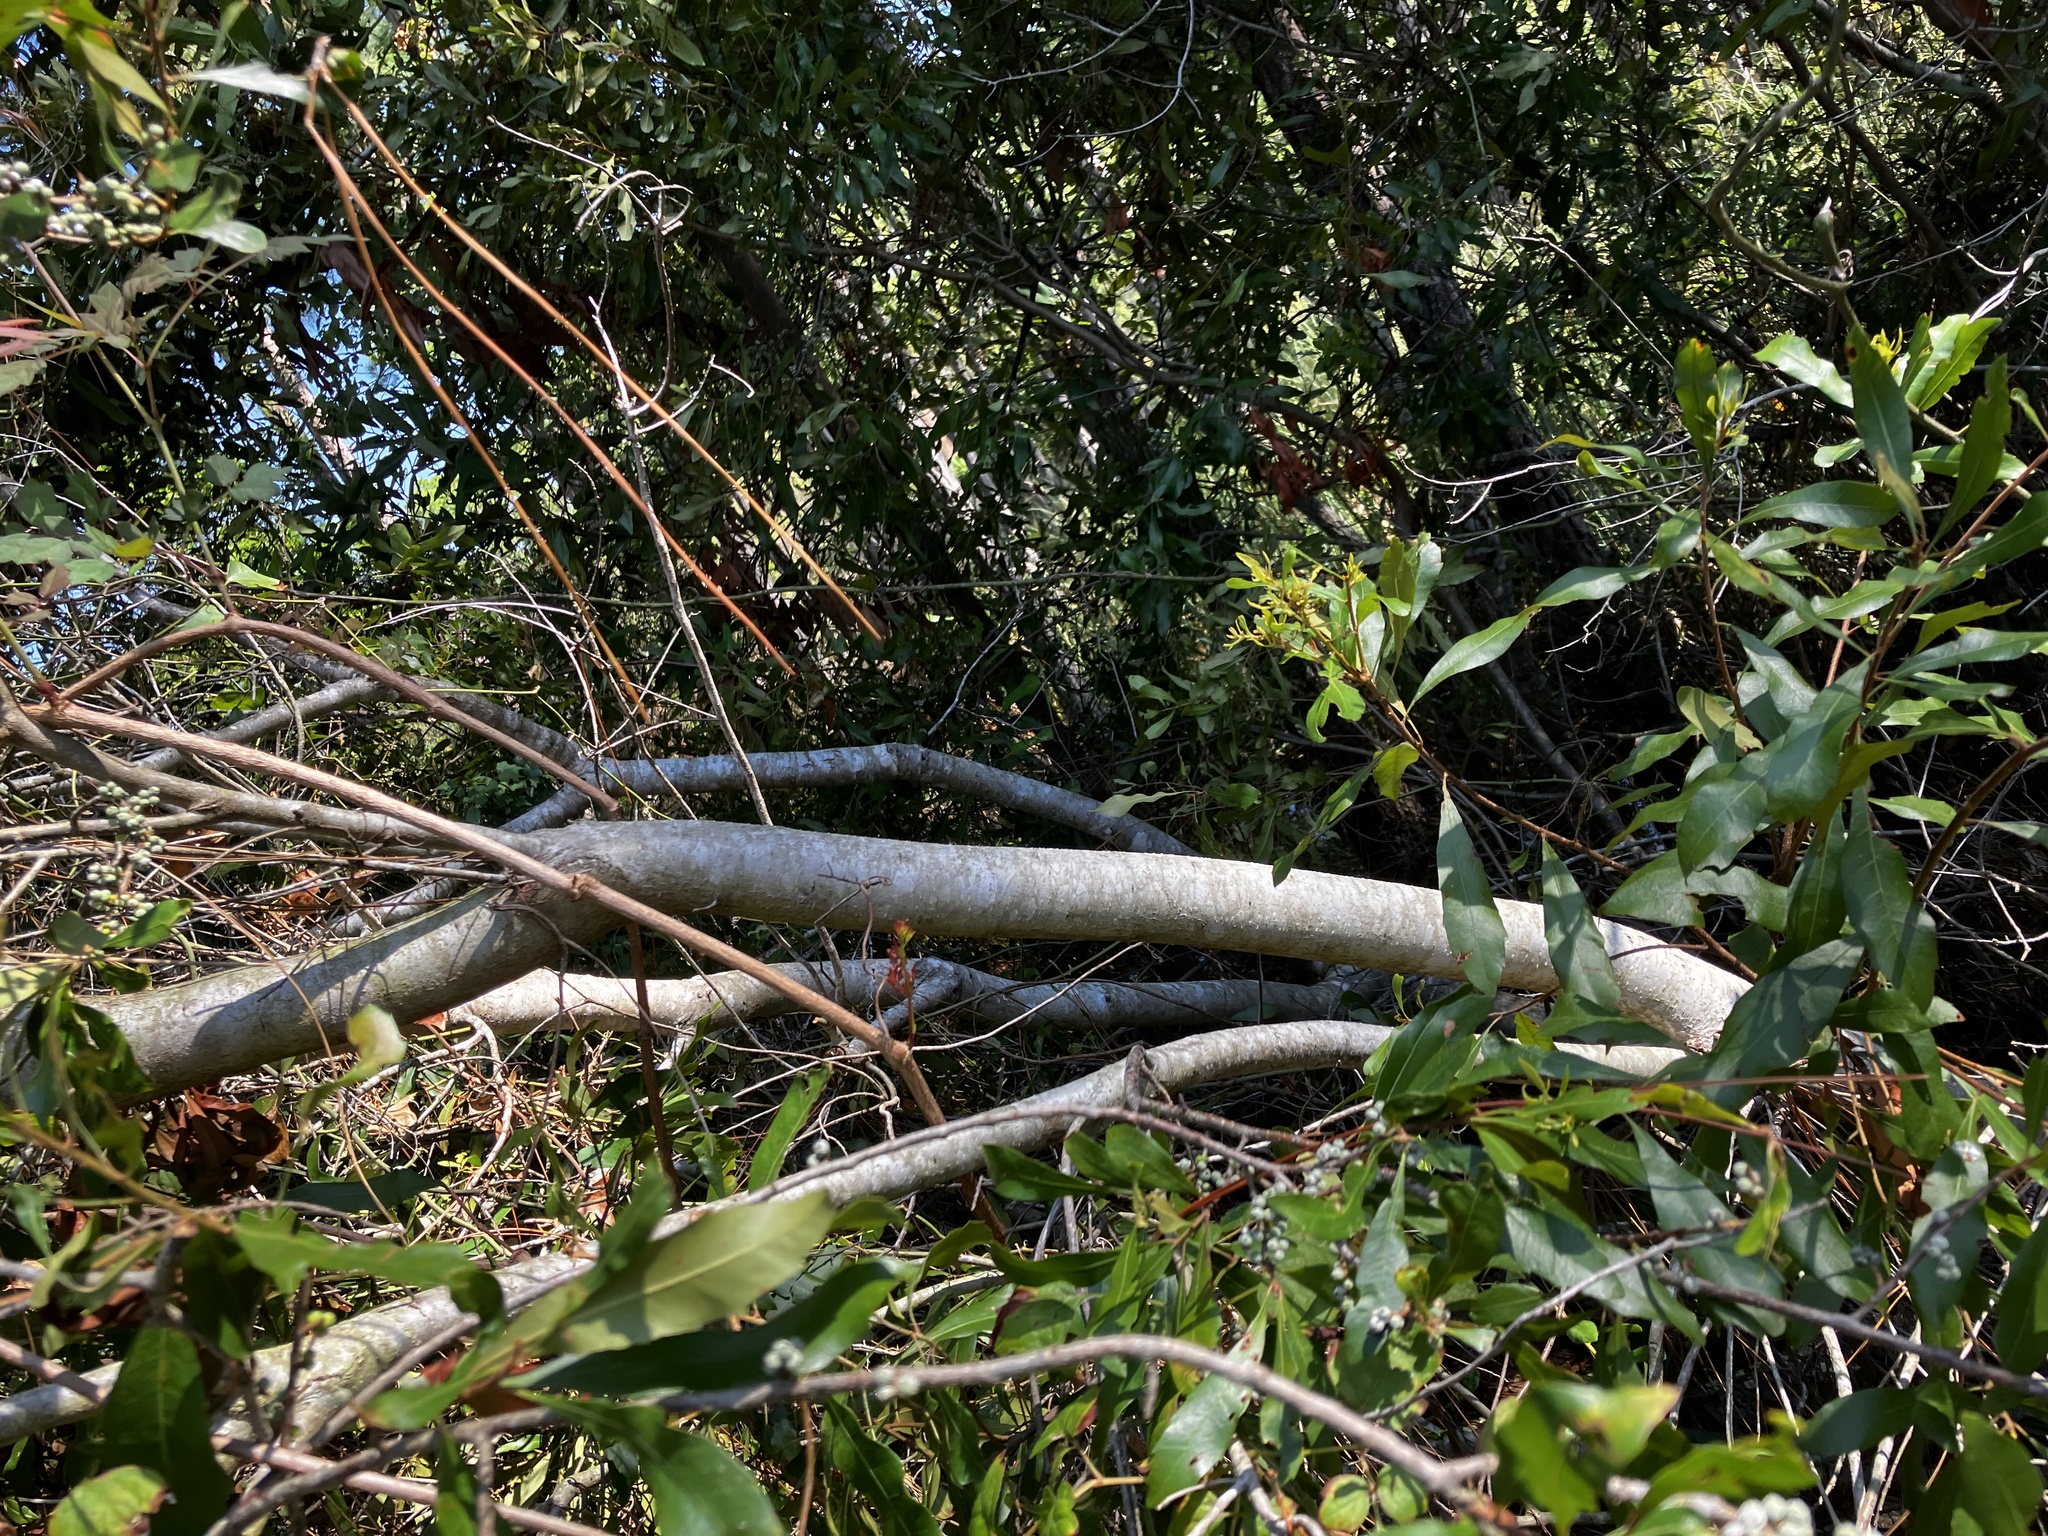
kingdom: Plantae
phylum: Tracheophyta
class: Magnoliopsida
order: Fagales
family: Myricaceae
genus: Morella
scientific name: Morella cerifera
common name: Wax myrtle
